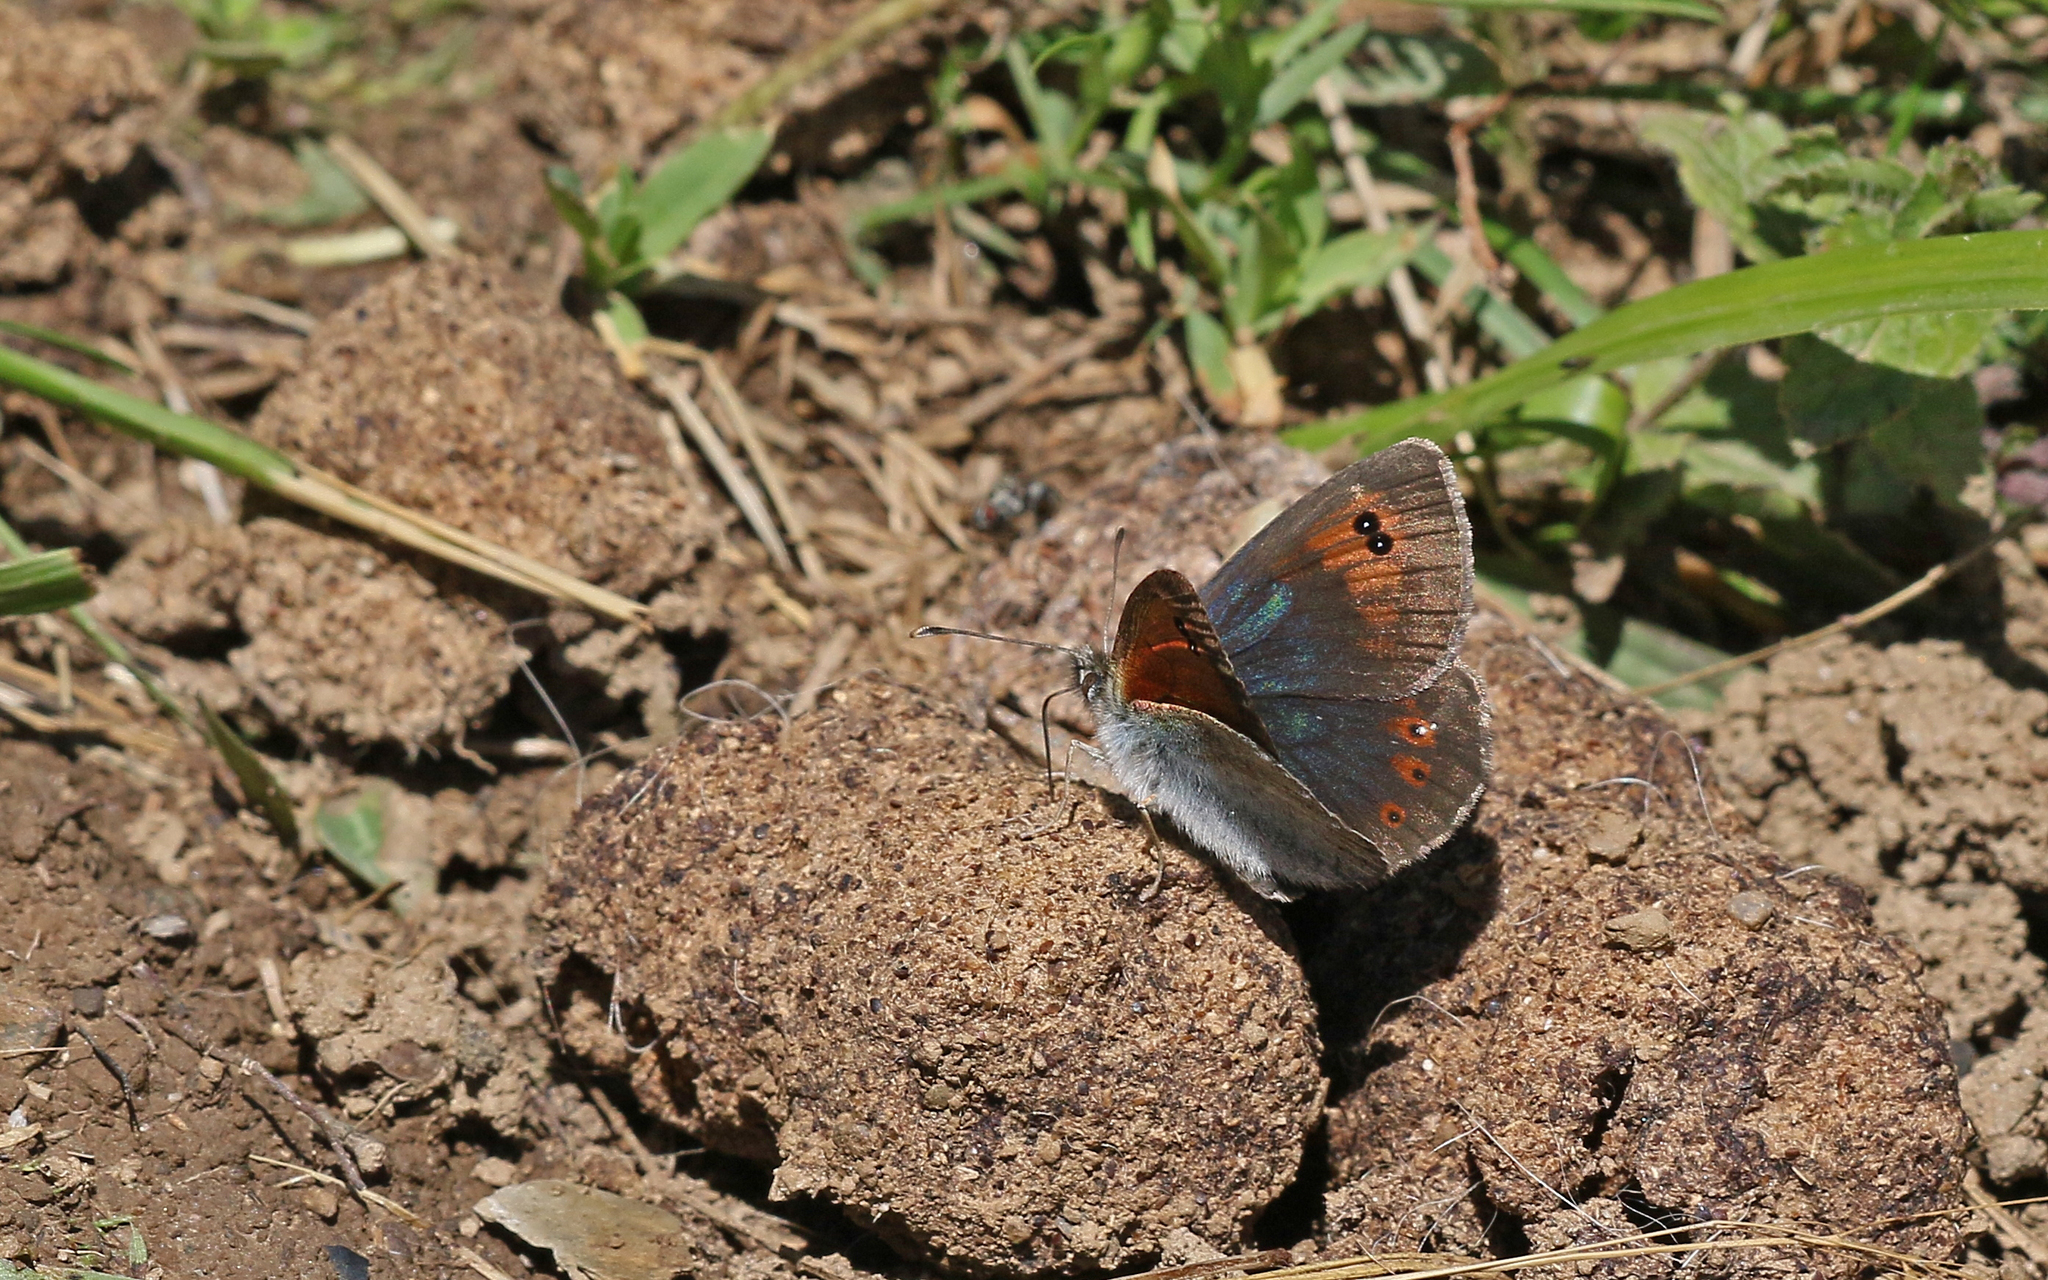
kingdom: Animalia
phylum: Arthropoda
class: Insecta
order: Lepidoptera
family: Nymphalidae
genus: Erebia
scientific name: Erebia cassioides
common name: Common brassy ringlet
